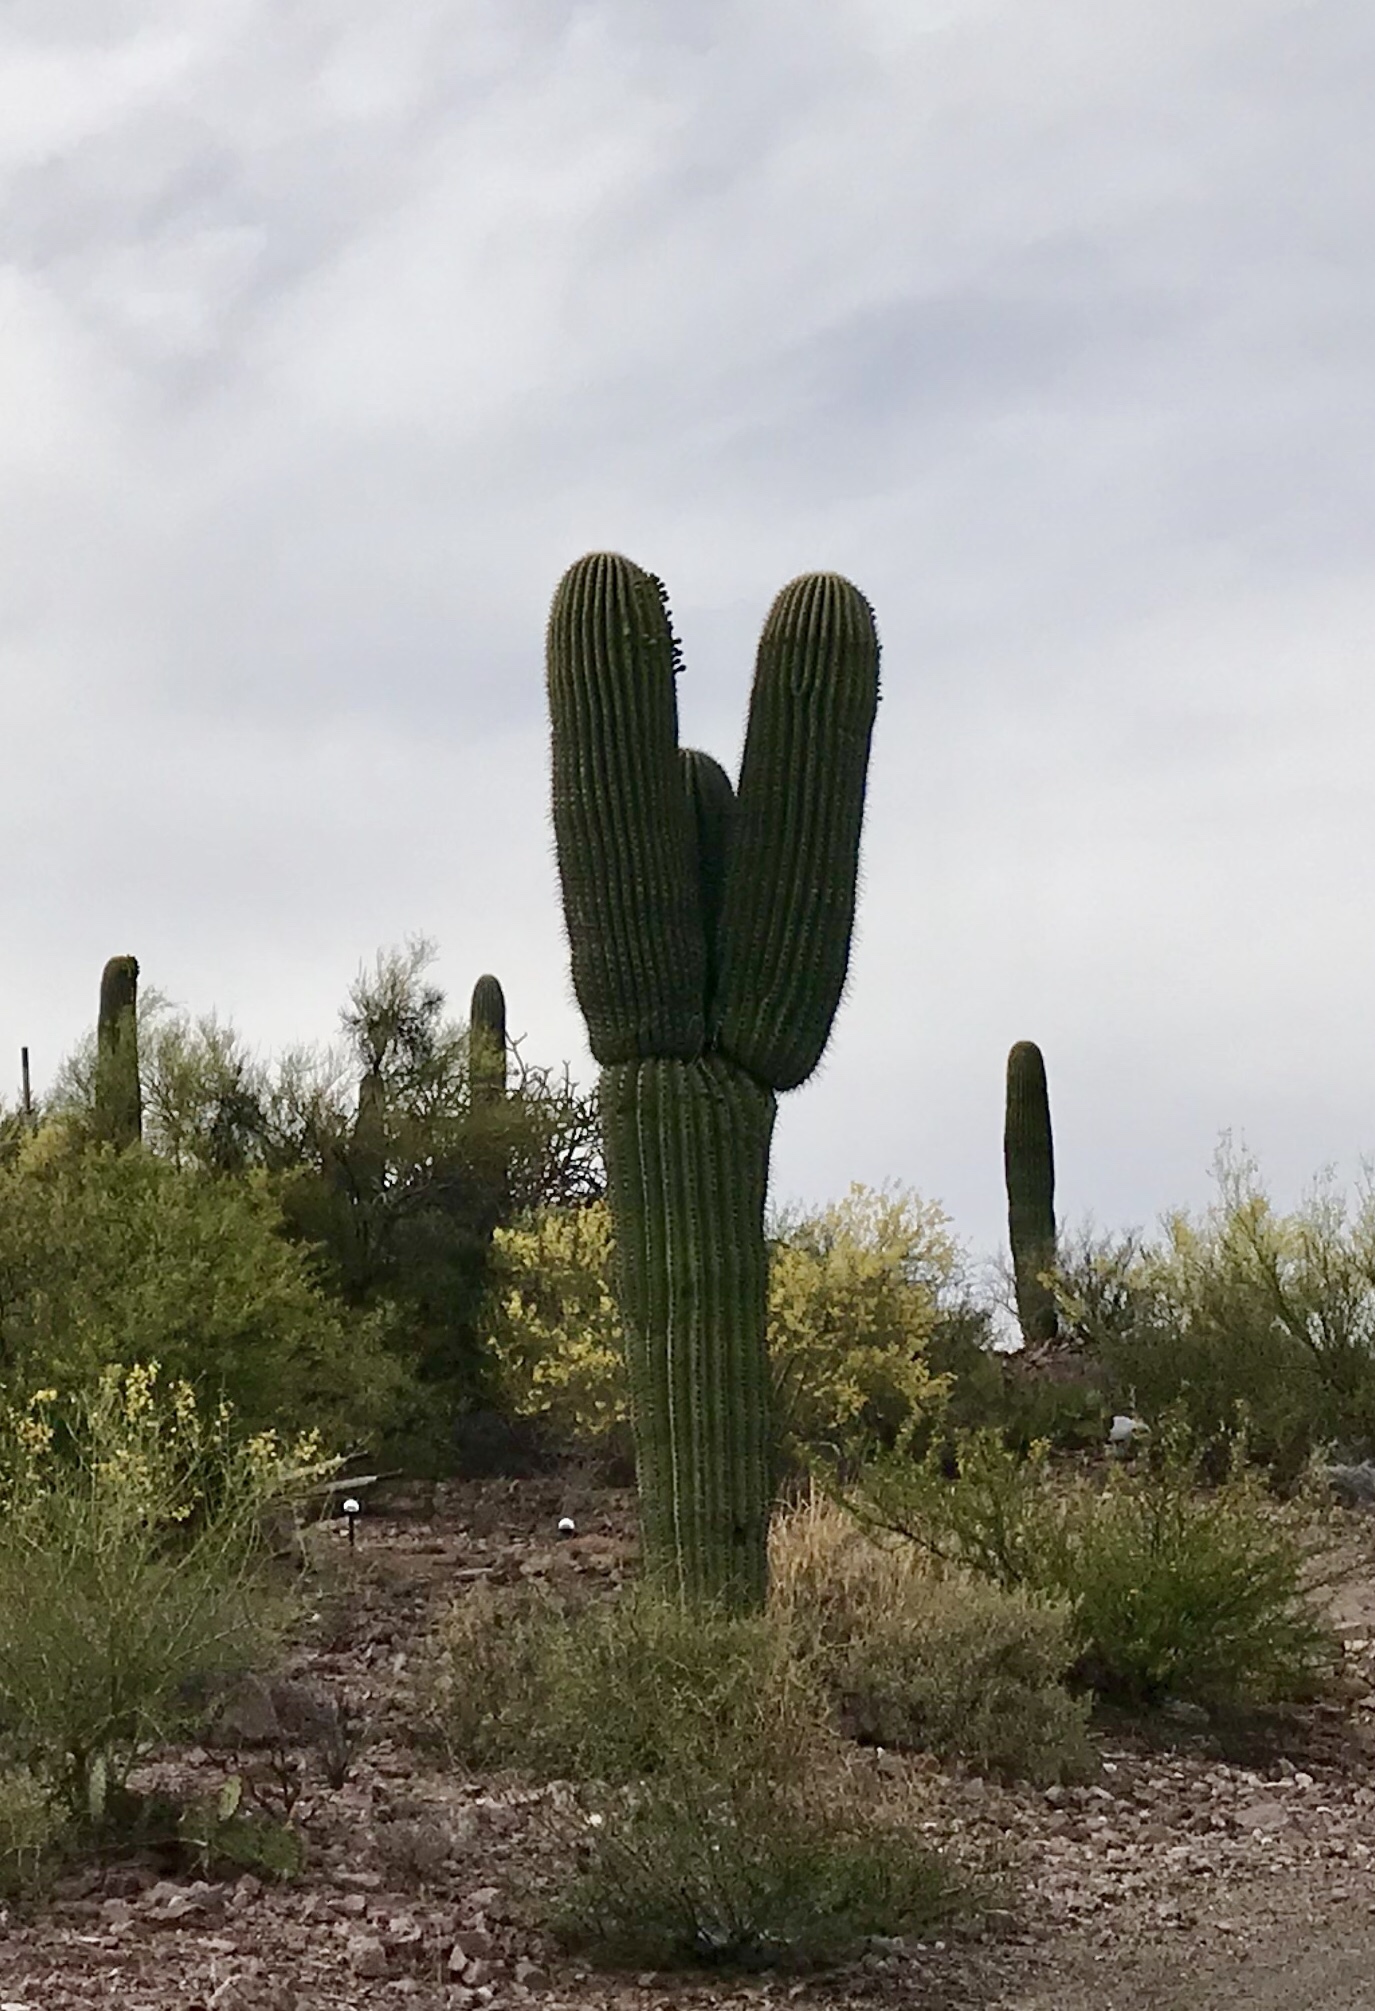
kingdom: Plantae
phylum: Tracheophyta
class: Magnoliopsida
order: Caryophyllales
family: Cactaceae
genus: Carnegiea
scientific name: Carnegiea gigantea
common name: Saguaro
